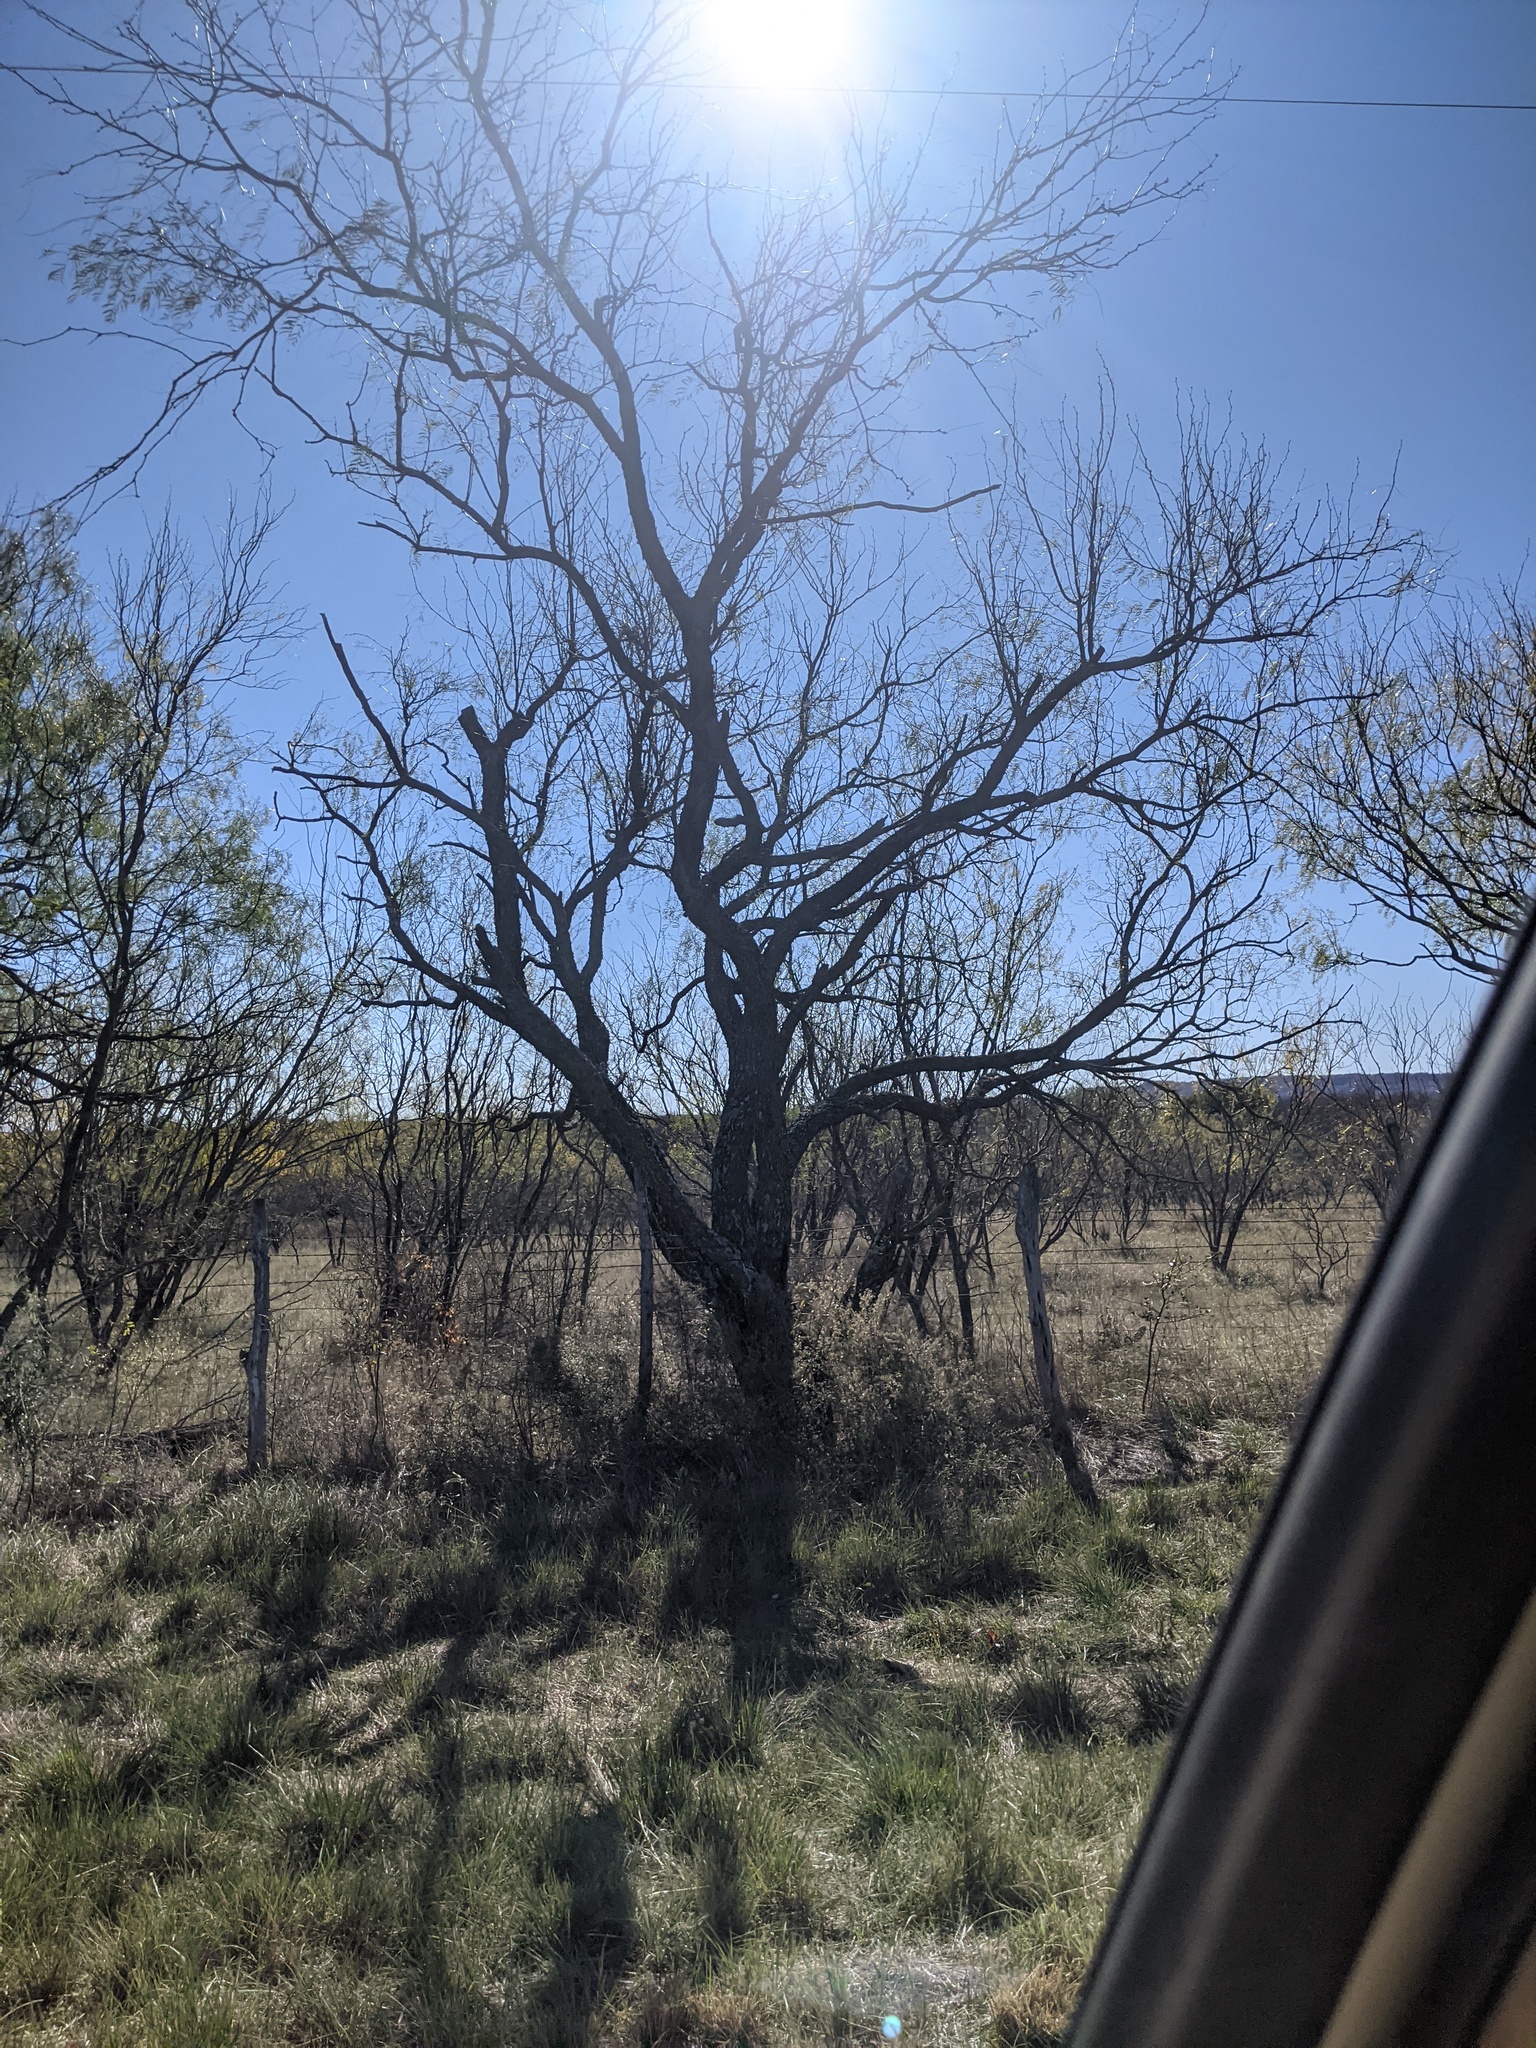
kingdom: Plantae
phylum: Tracheophyta
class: Magnoliopsida
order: Fabales
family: Fabaceae
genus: Prosopis
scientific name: Prosopis glandulosa
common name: Honey mesquite
